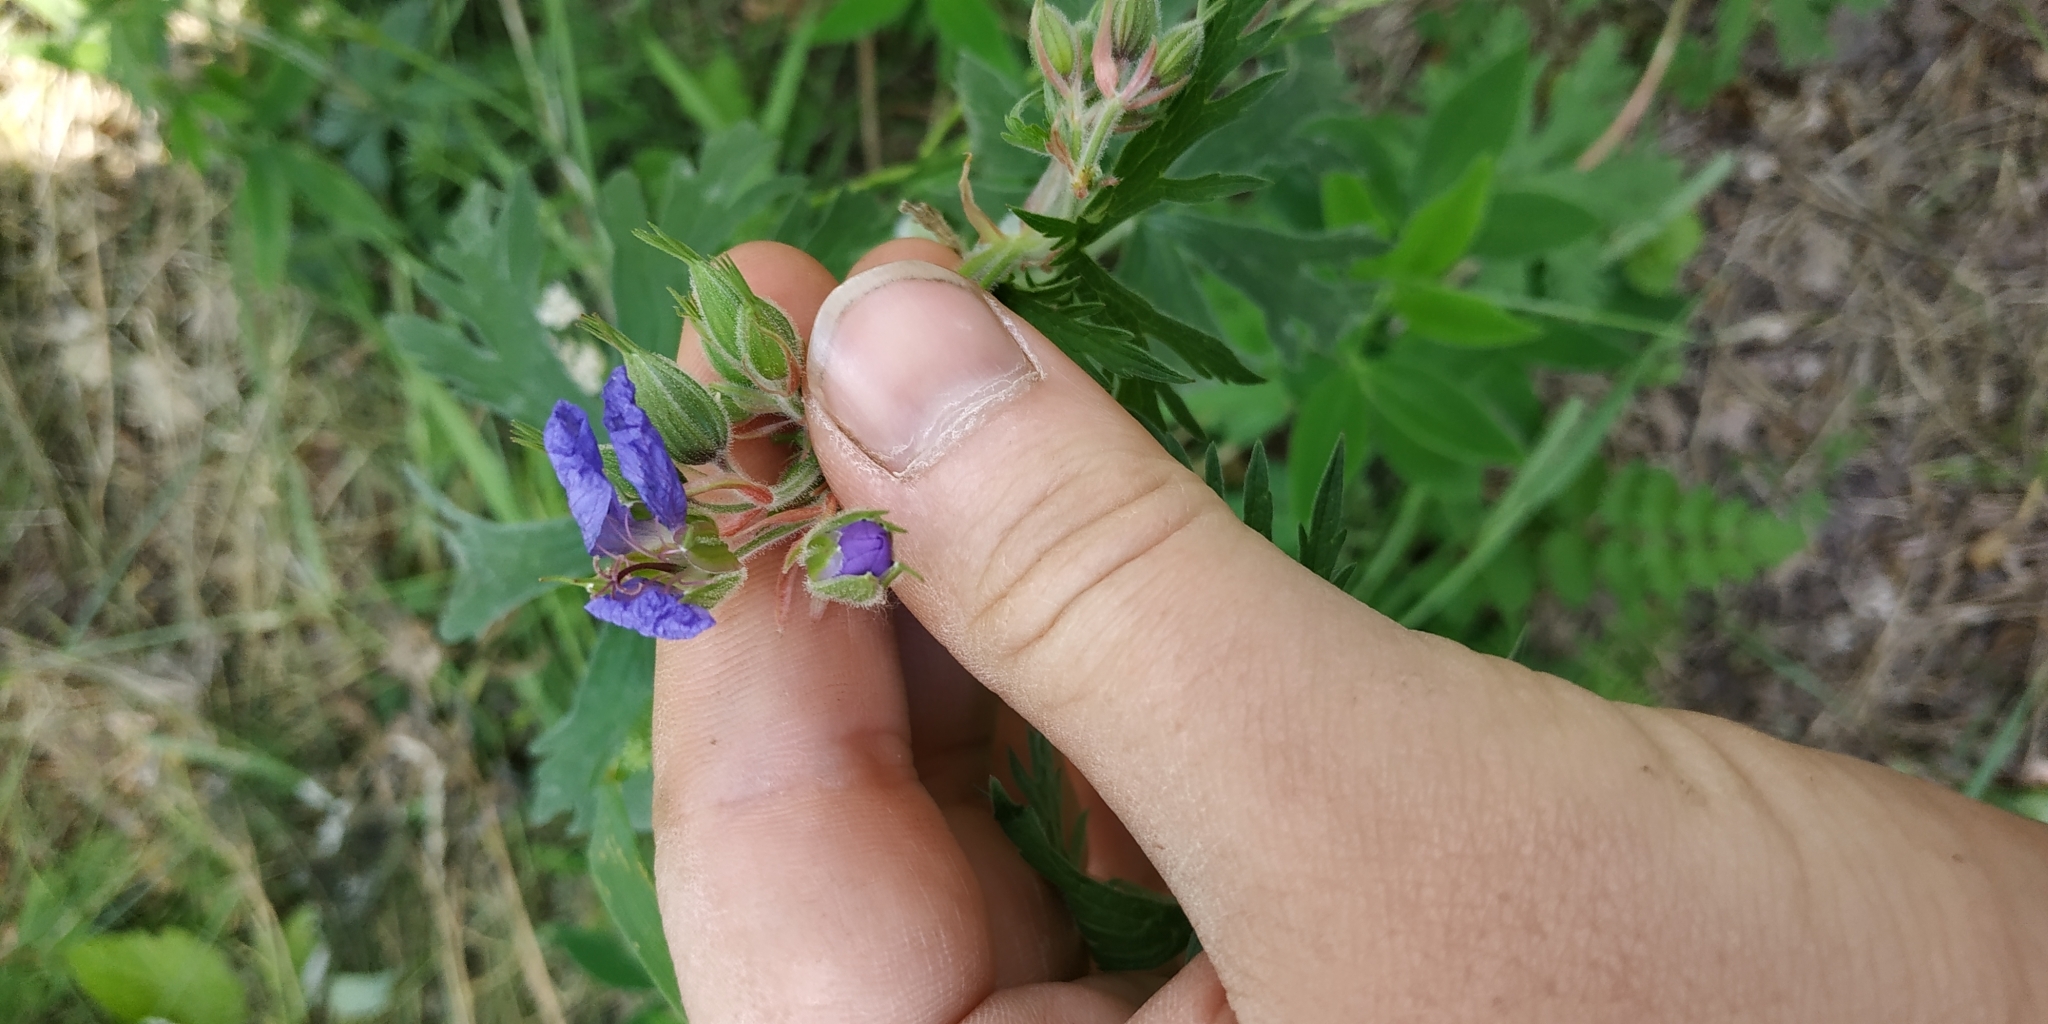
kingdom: Plantae
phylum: Tracheophyta
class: Magnoliopsida
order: Geraniales
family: Geraniaceae
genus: Geranium
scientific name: Geranium pratense
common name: Meadow crane's-bill
